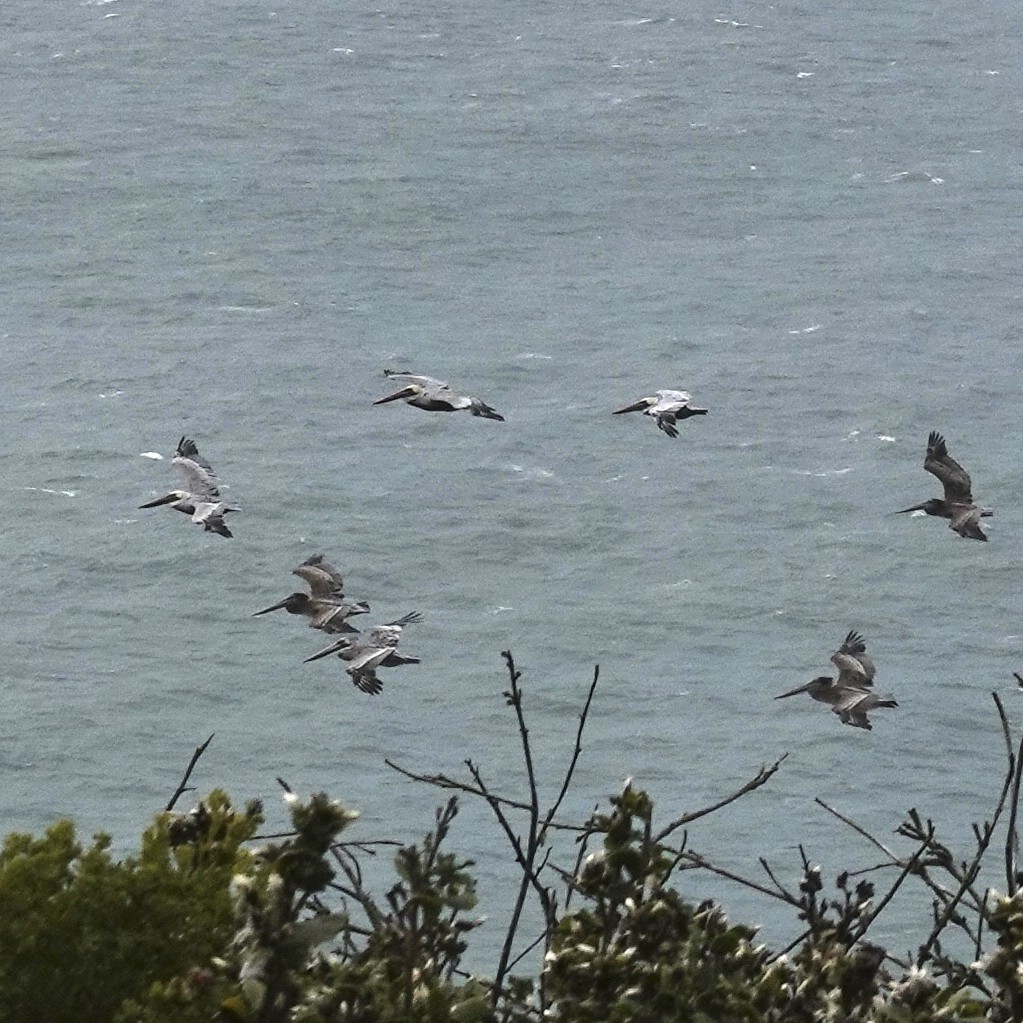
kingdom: Animalia
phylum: Chordata
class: Aves
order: Pelecaniformes
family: Pelecanidae
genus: Pelecanus
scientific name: Pelecanus occidentalis
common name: Brown pelican
